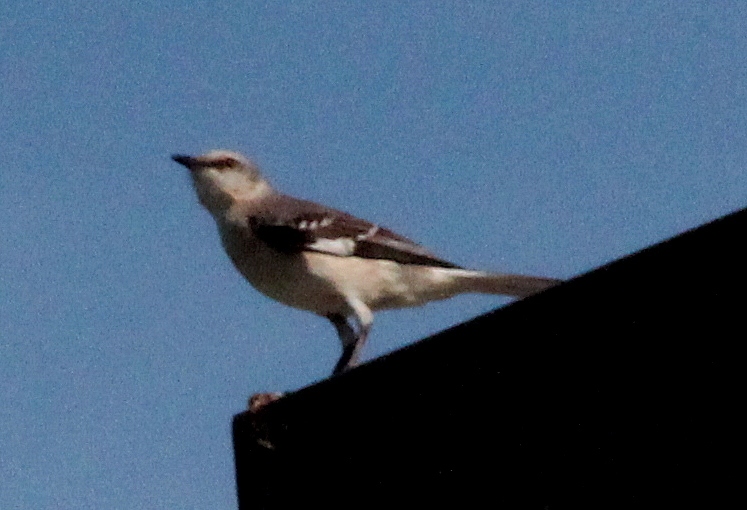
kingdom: Animalia
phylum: Chordata
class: Aves
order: Passeriformes
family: Mimidae
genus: Mimus
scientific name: Mimus polyglottos
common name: Northern mockingbird
